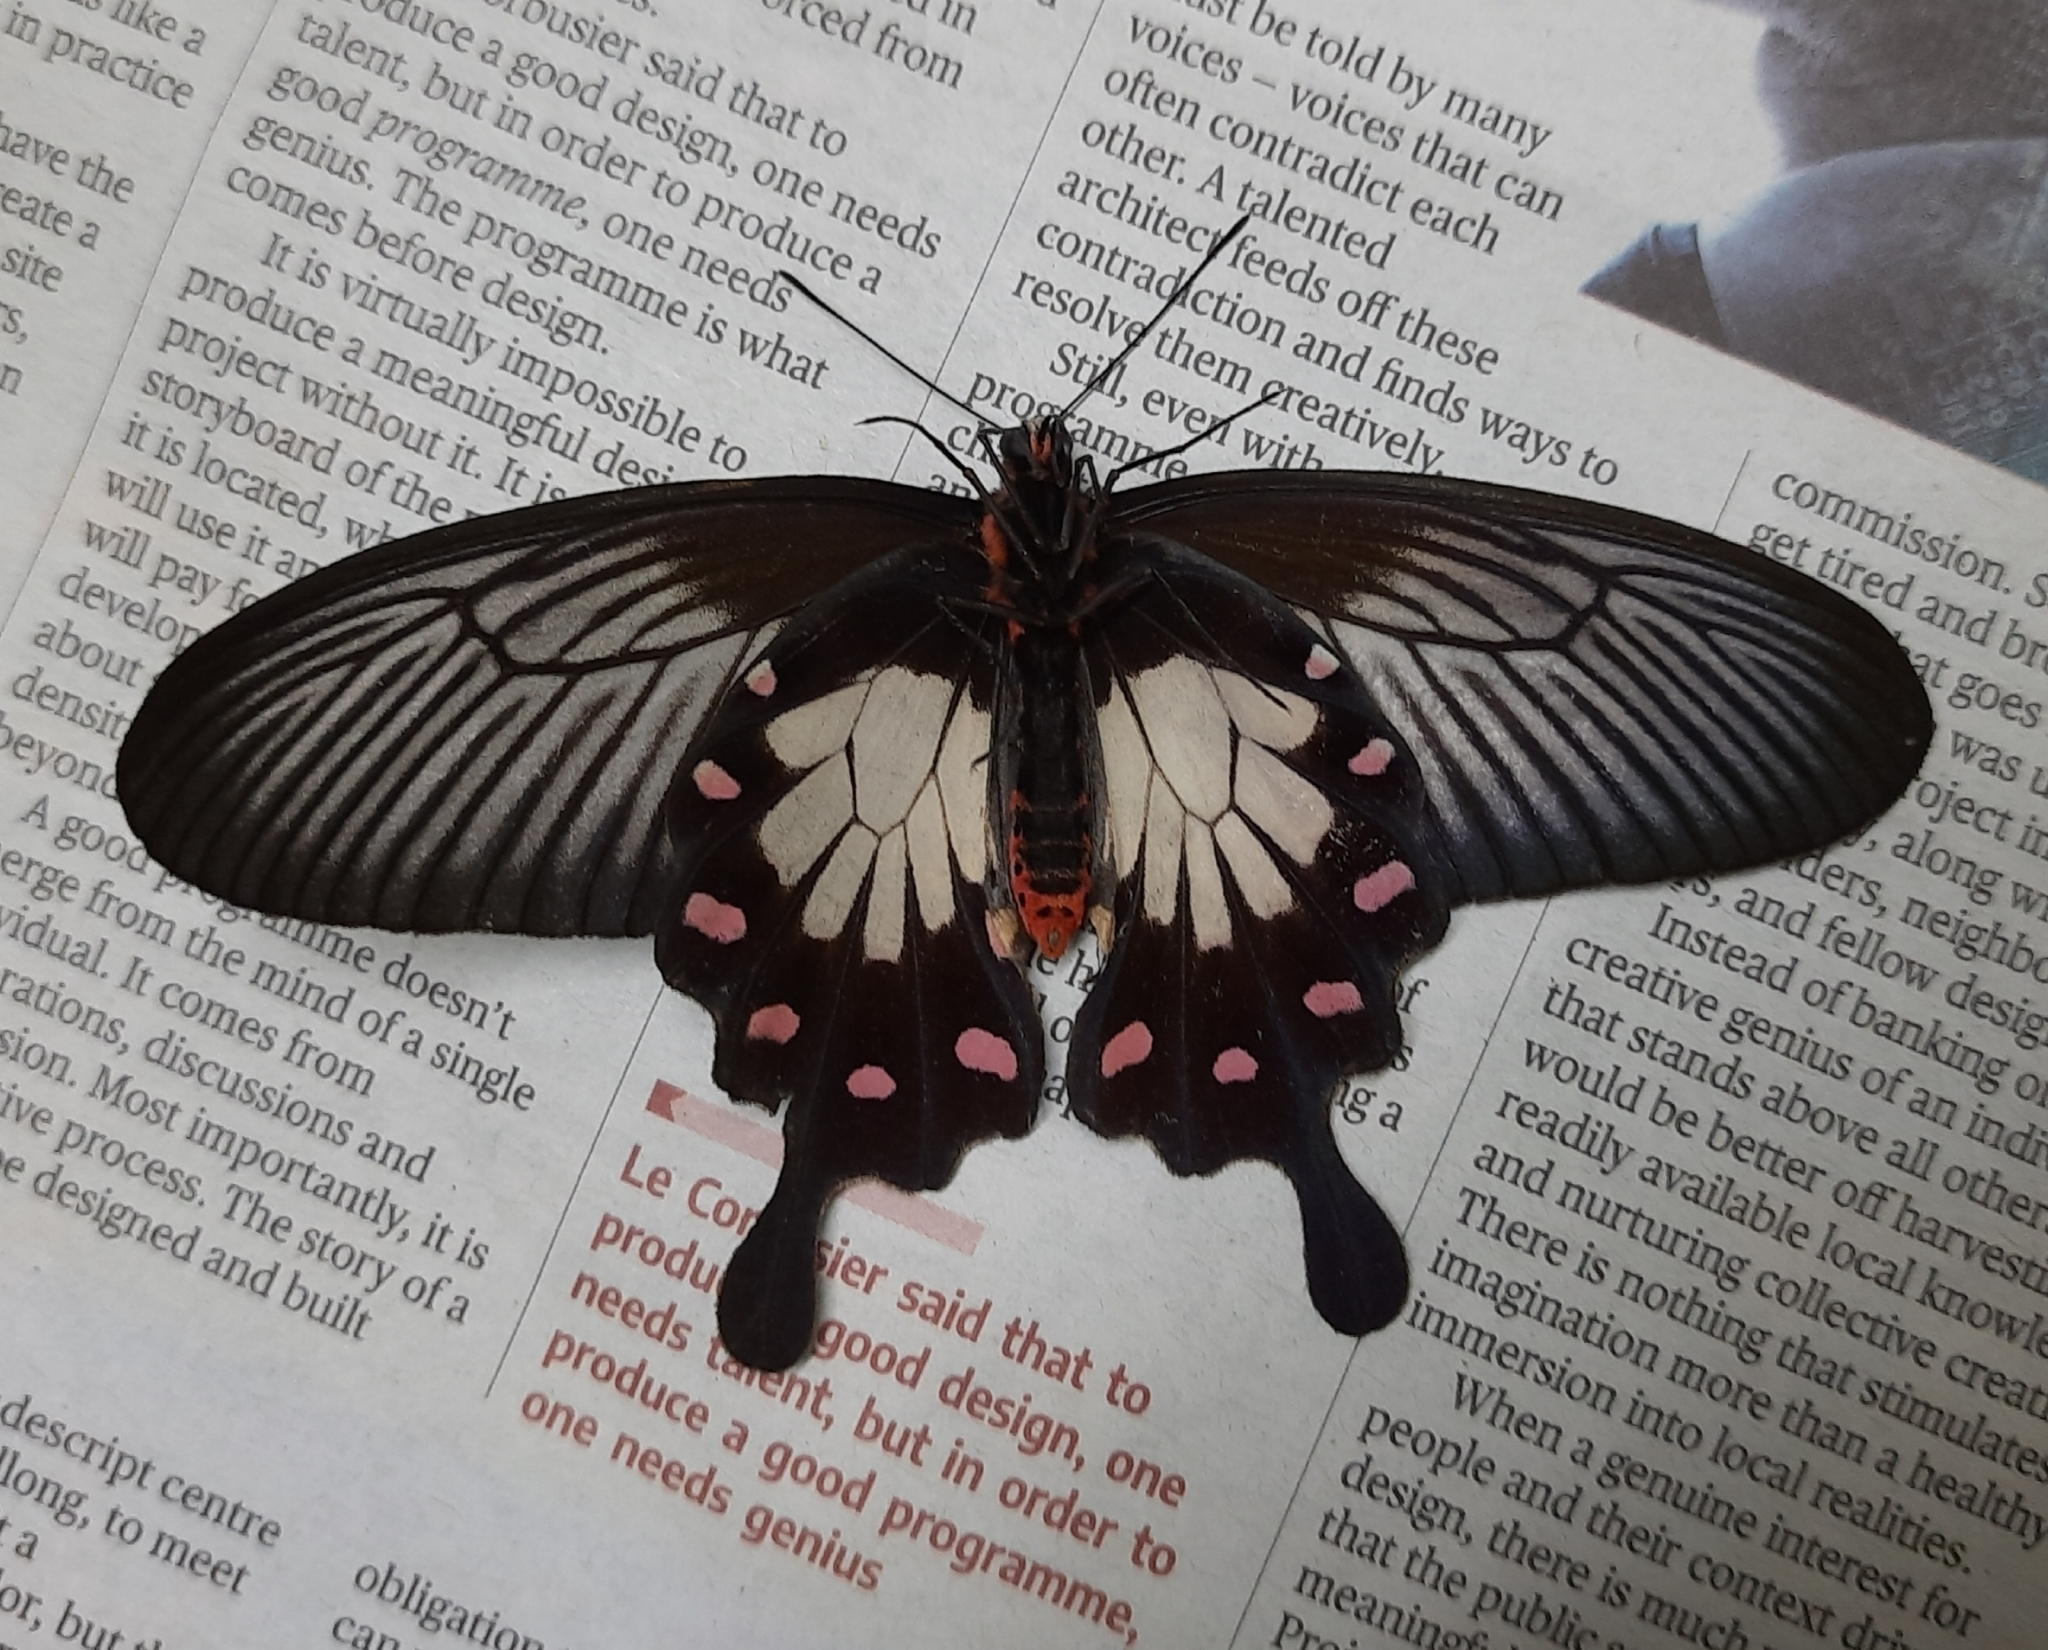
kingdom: Animalia
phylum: Arthropoda
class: Insecta
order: Lepidoptera
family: Papilionidae
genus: Pachliopta
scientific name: Pachliopta pandiyana
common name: Malabar rose
